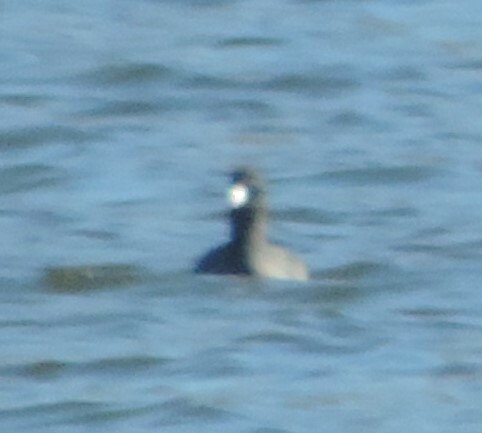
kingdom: Animalia
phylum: Chordata
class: Aves
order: Gruiformes
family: Rallidae
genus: Fulica
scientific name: Fulica americana
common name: American coot
